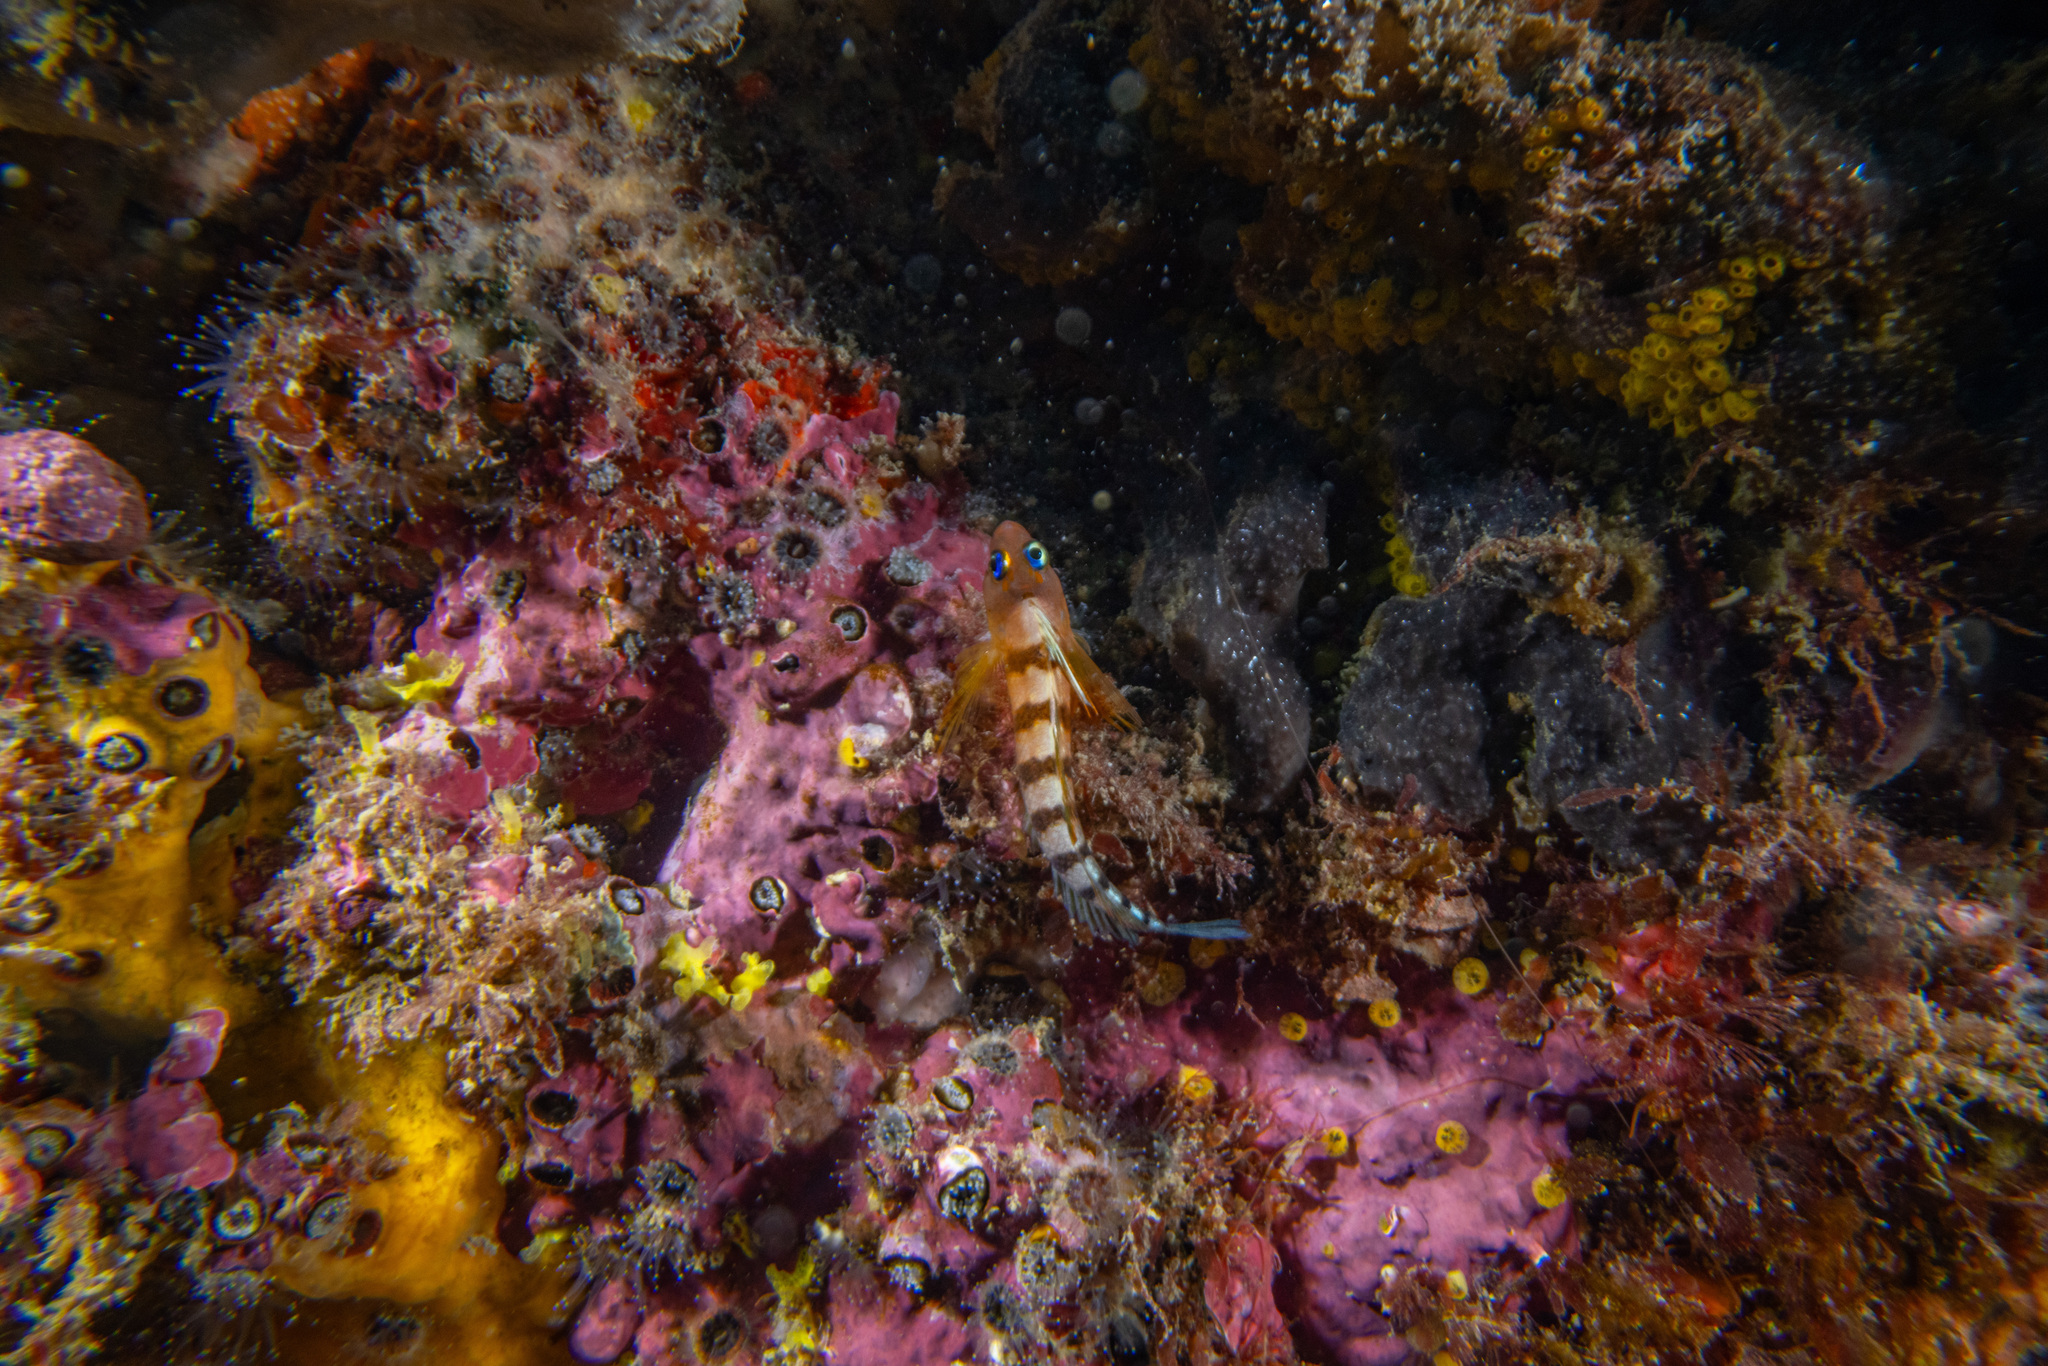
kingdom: Animalia
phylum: Chordata
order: Perciformes
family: Tripterygiidae
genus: Notoclinops
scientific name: Notoclinops segmentatus
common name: Blue-eyed triplefin
